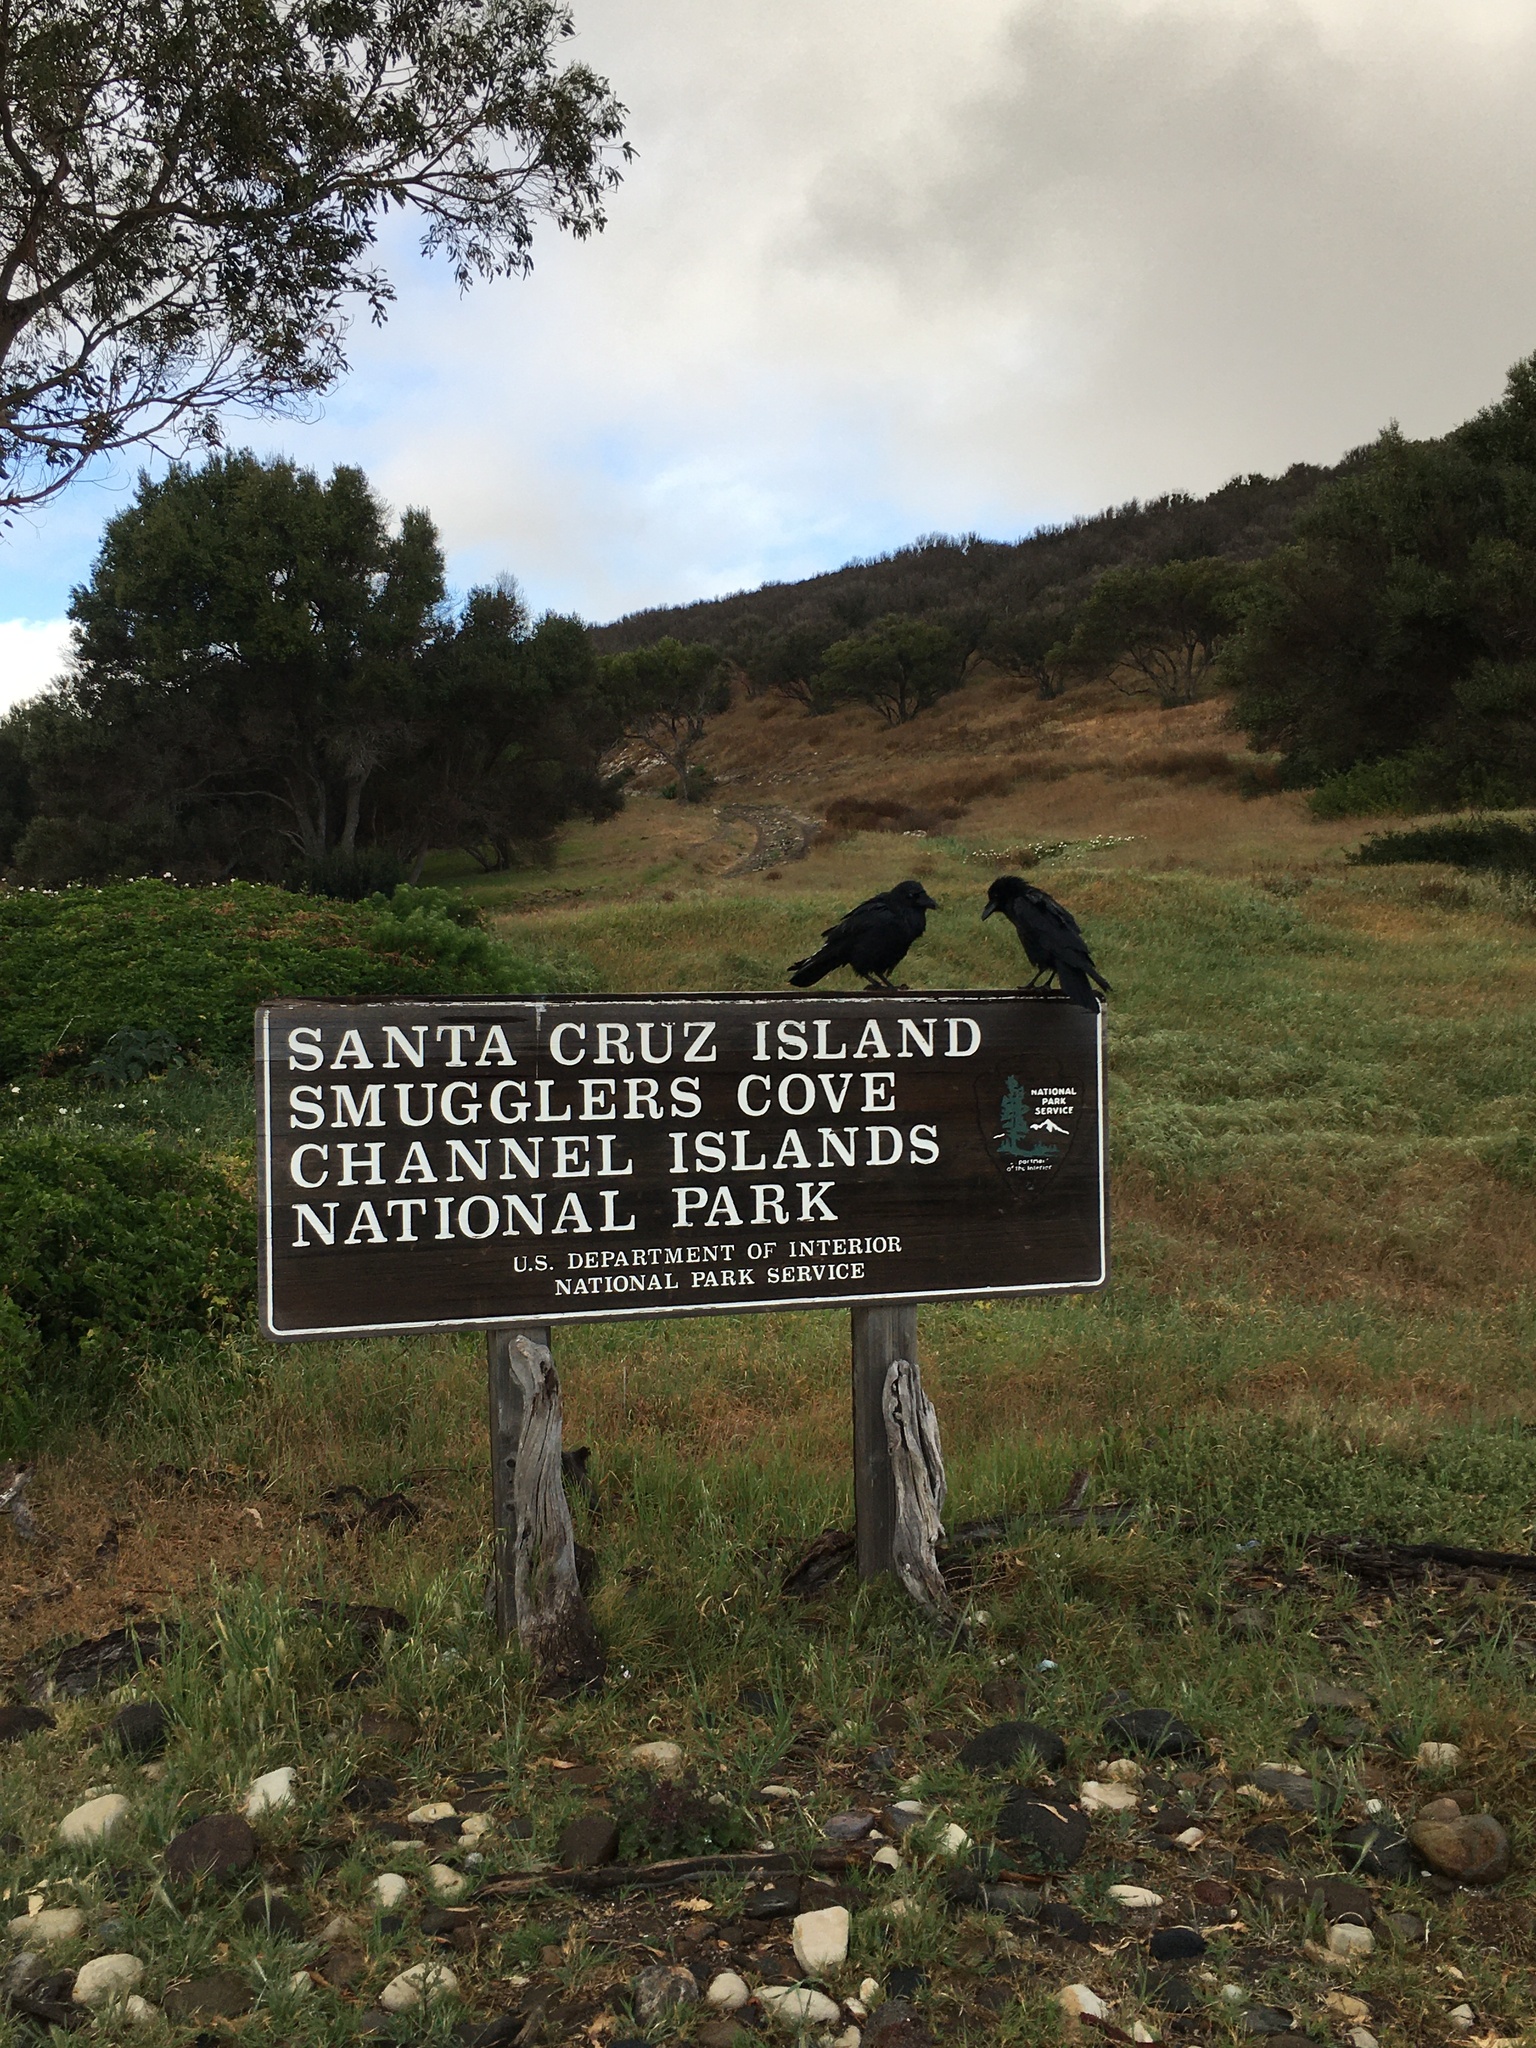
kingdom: Animalia
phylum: Chordata
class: Aves
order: Passeriformes
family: Corvidae
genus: Corvus
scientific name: Corvus corax
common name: Common raven
